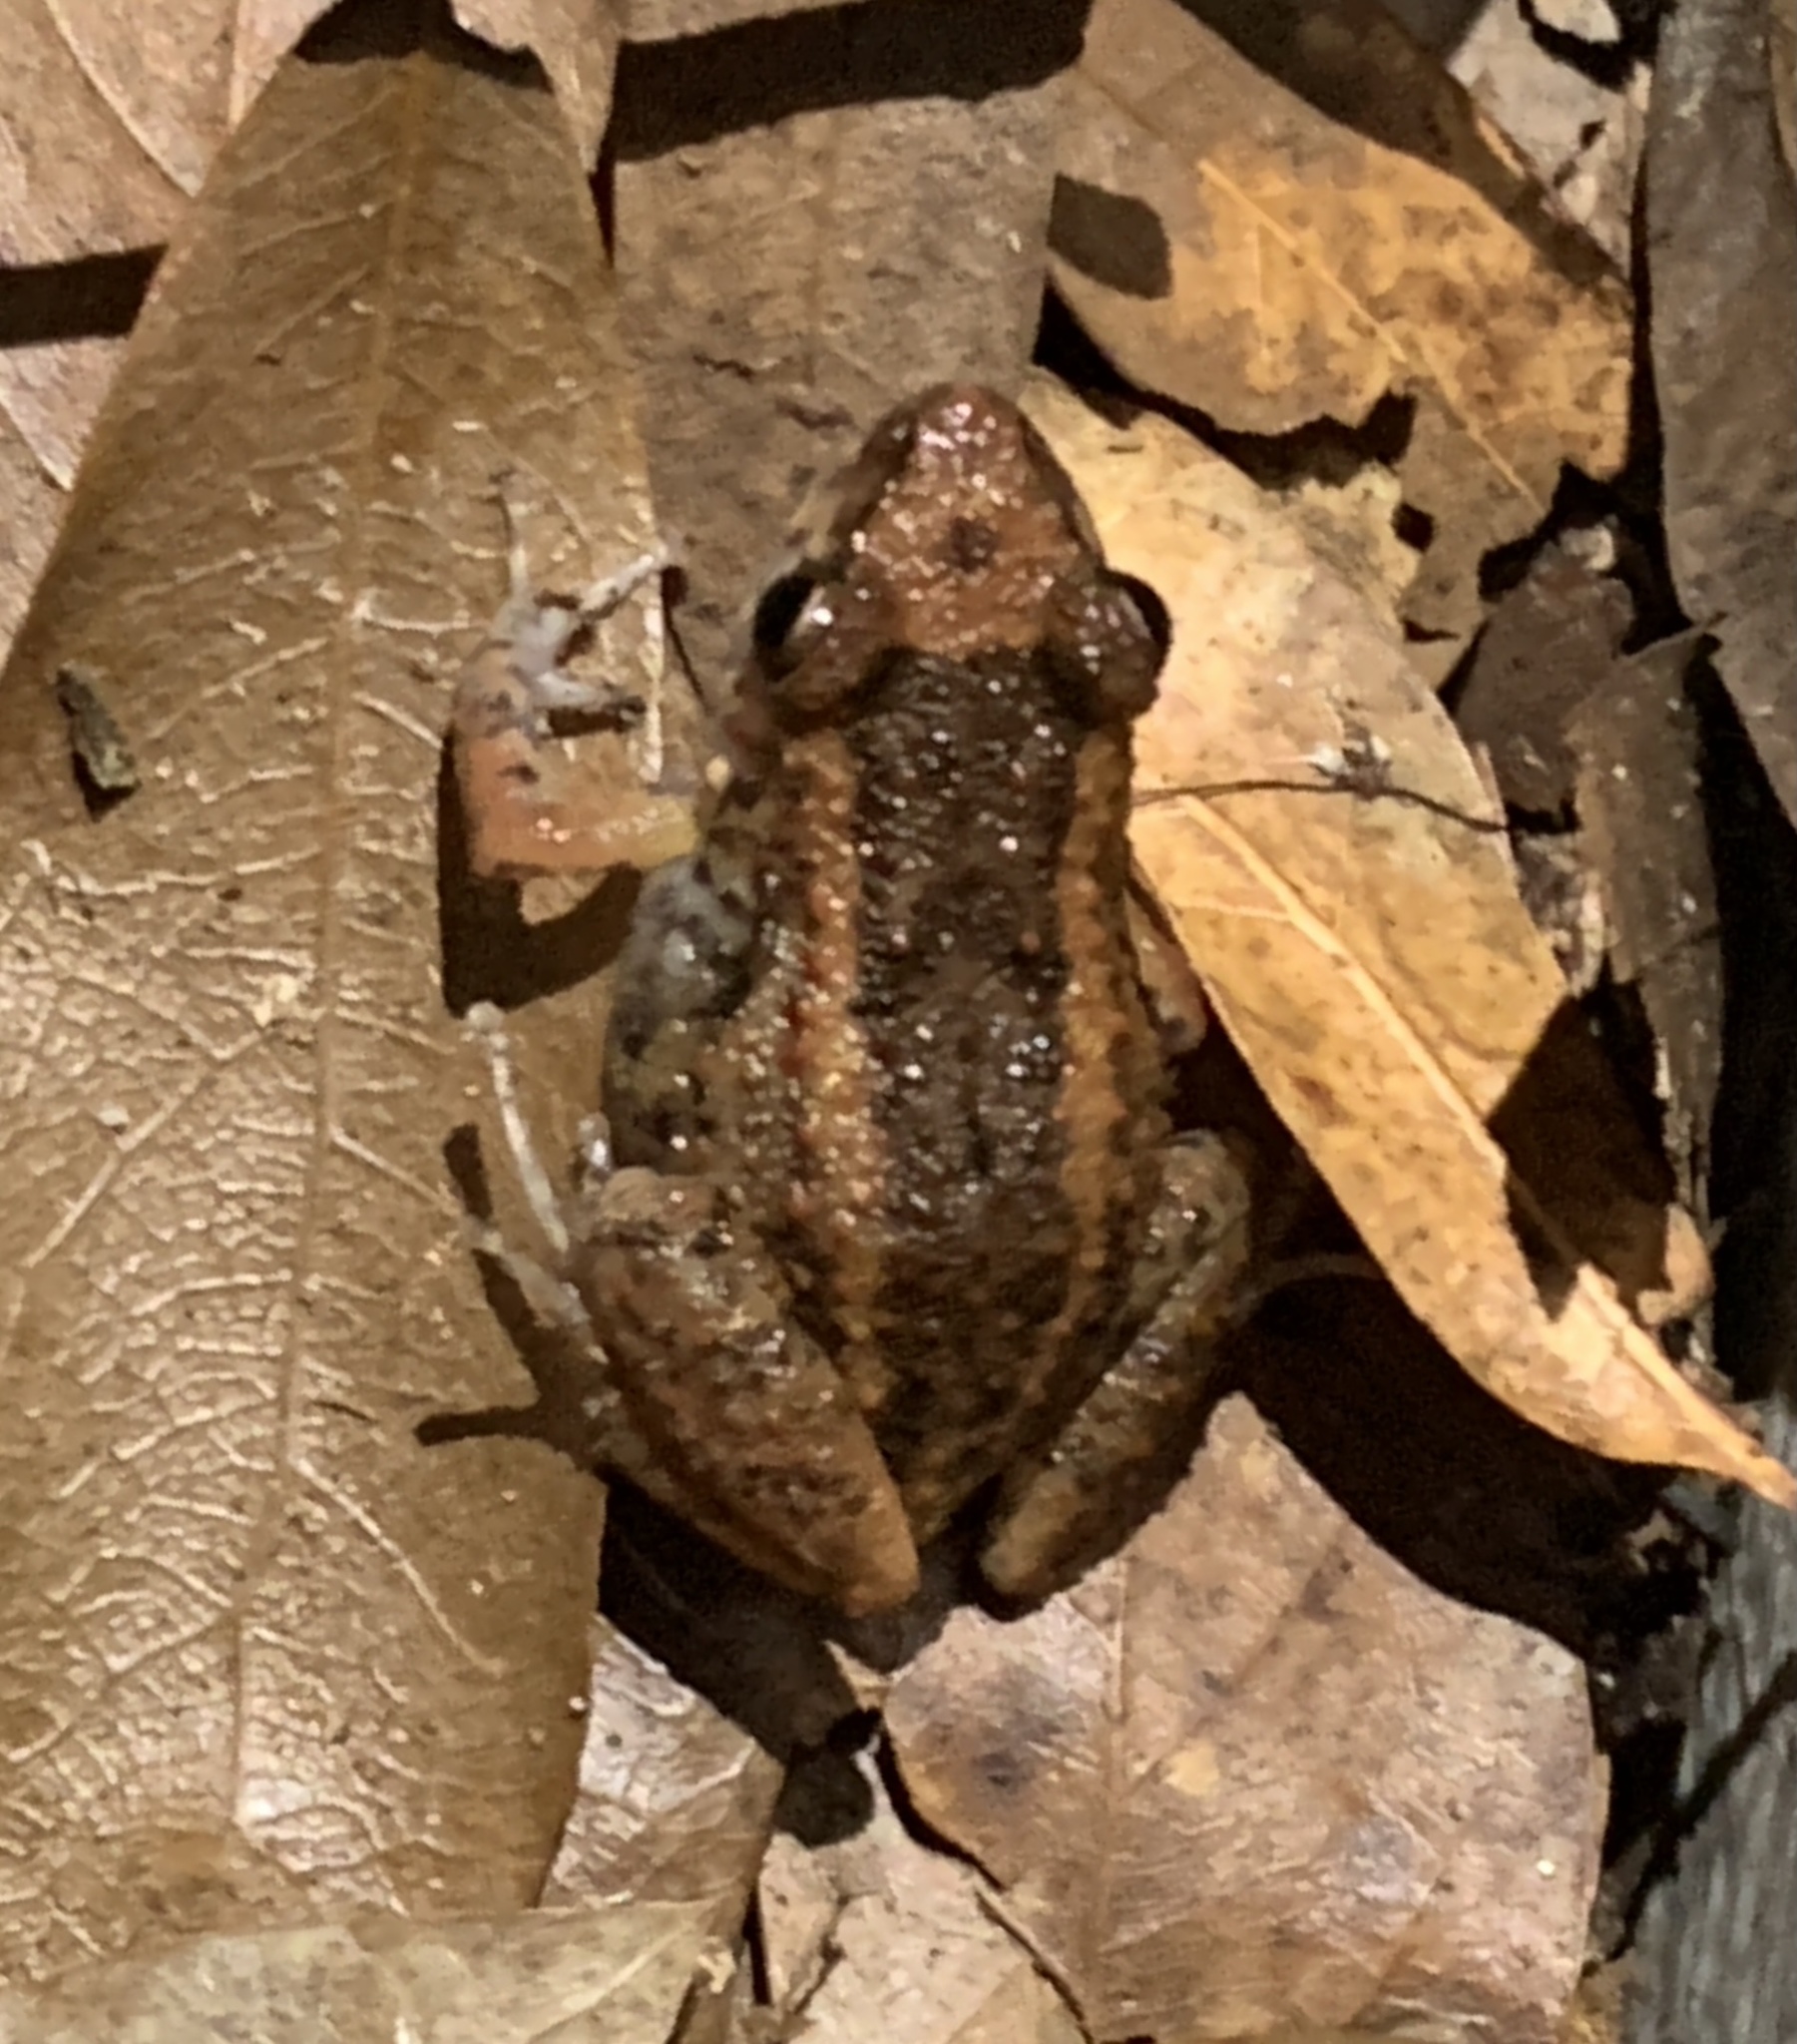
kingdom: Animalia
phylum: Chordata
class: Amphibia
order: Anura
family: Eleutherodactylidae
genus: Eleutherodactylus
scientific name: Eleutherodactylus planirostris
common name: Greenhouse frog
